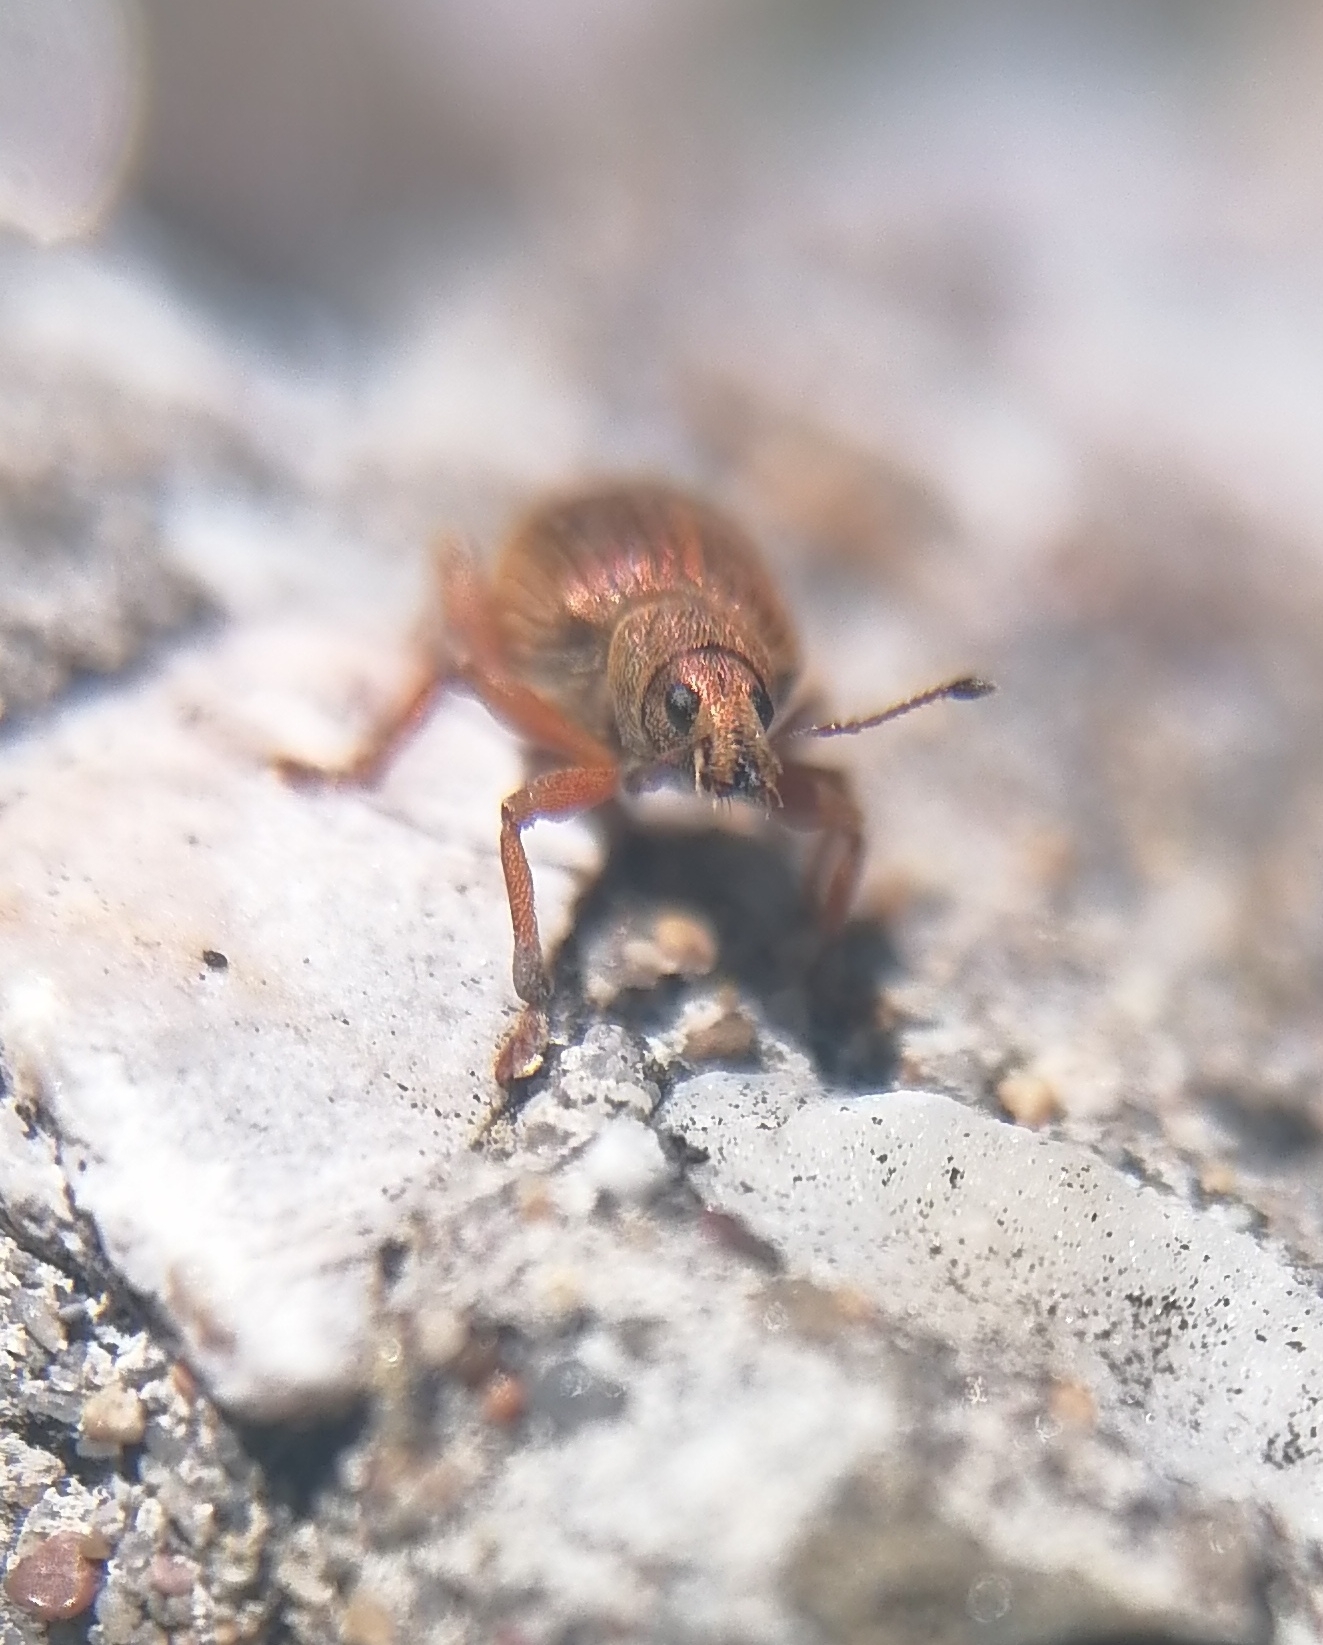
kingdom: Animalia
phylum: Arthropoda
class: Insecta
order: Coleoptera
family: Curculionidae
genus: Polydrusus
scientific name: Polydrusus mollis
